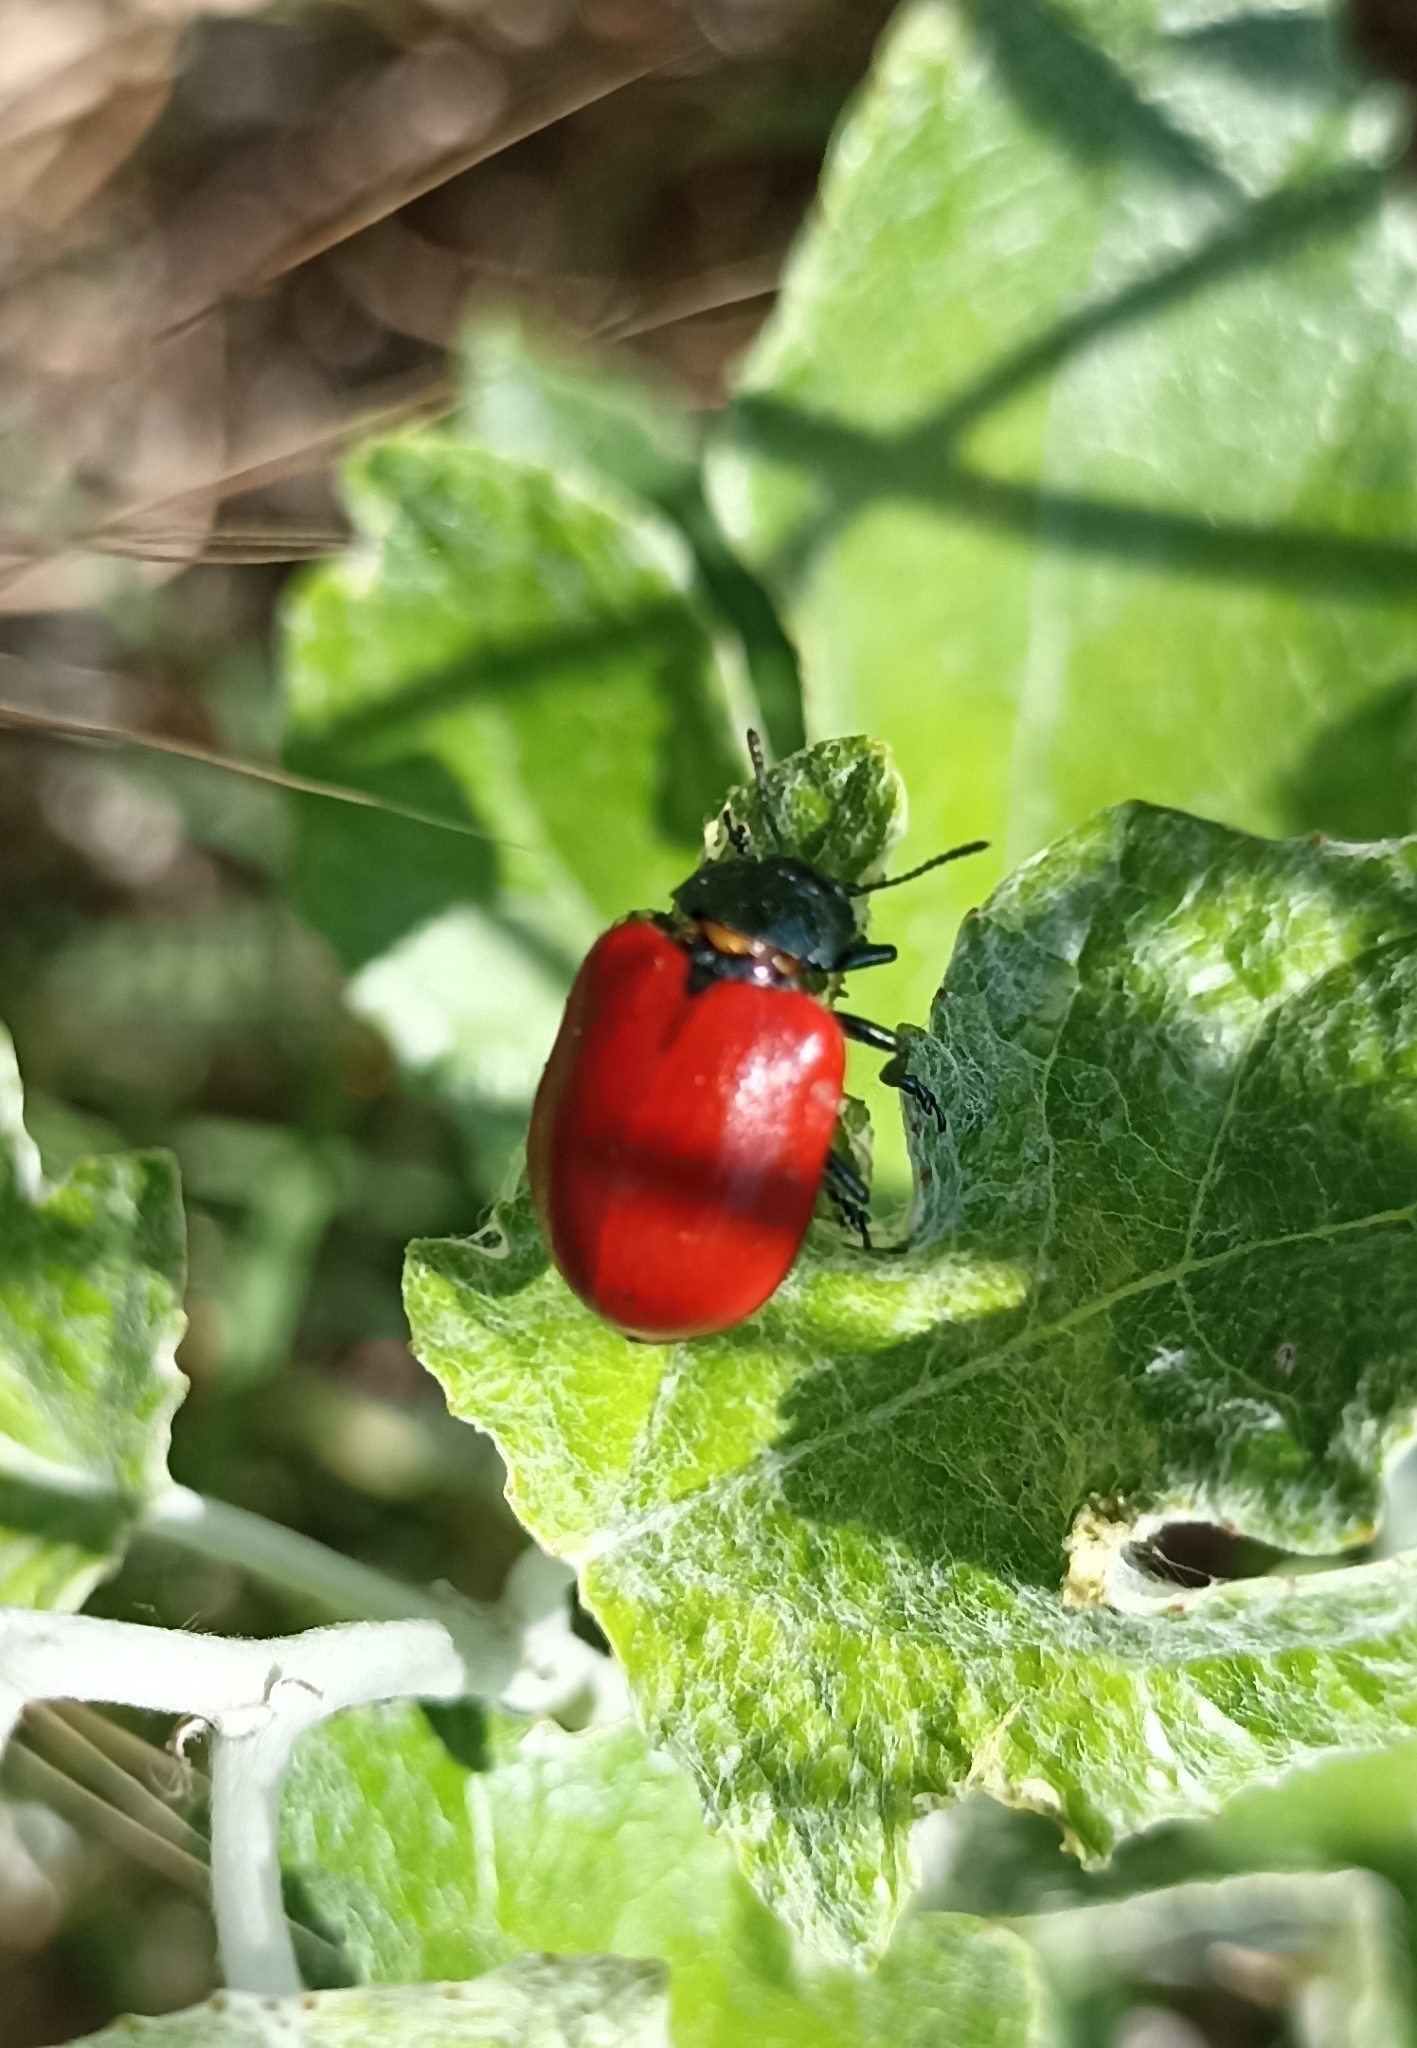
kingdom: Animalia
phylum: Arthropoda
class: Insecta
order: Coleoptera
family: Chrysomelidae
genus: Chrysomela
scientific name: Chrysomela populi
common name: Red poplar leaf beetle
